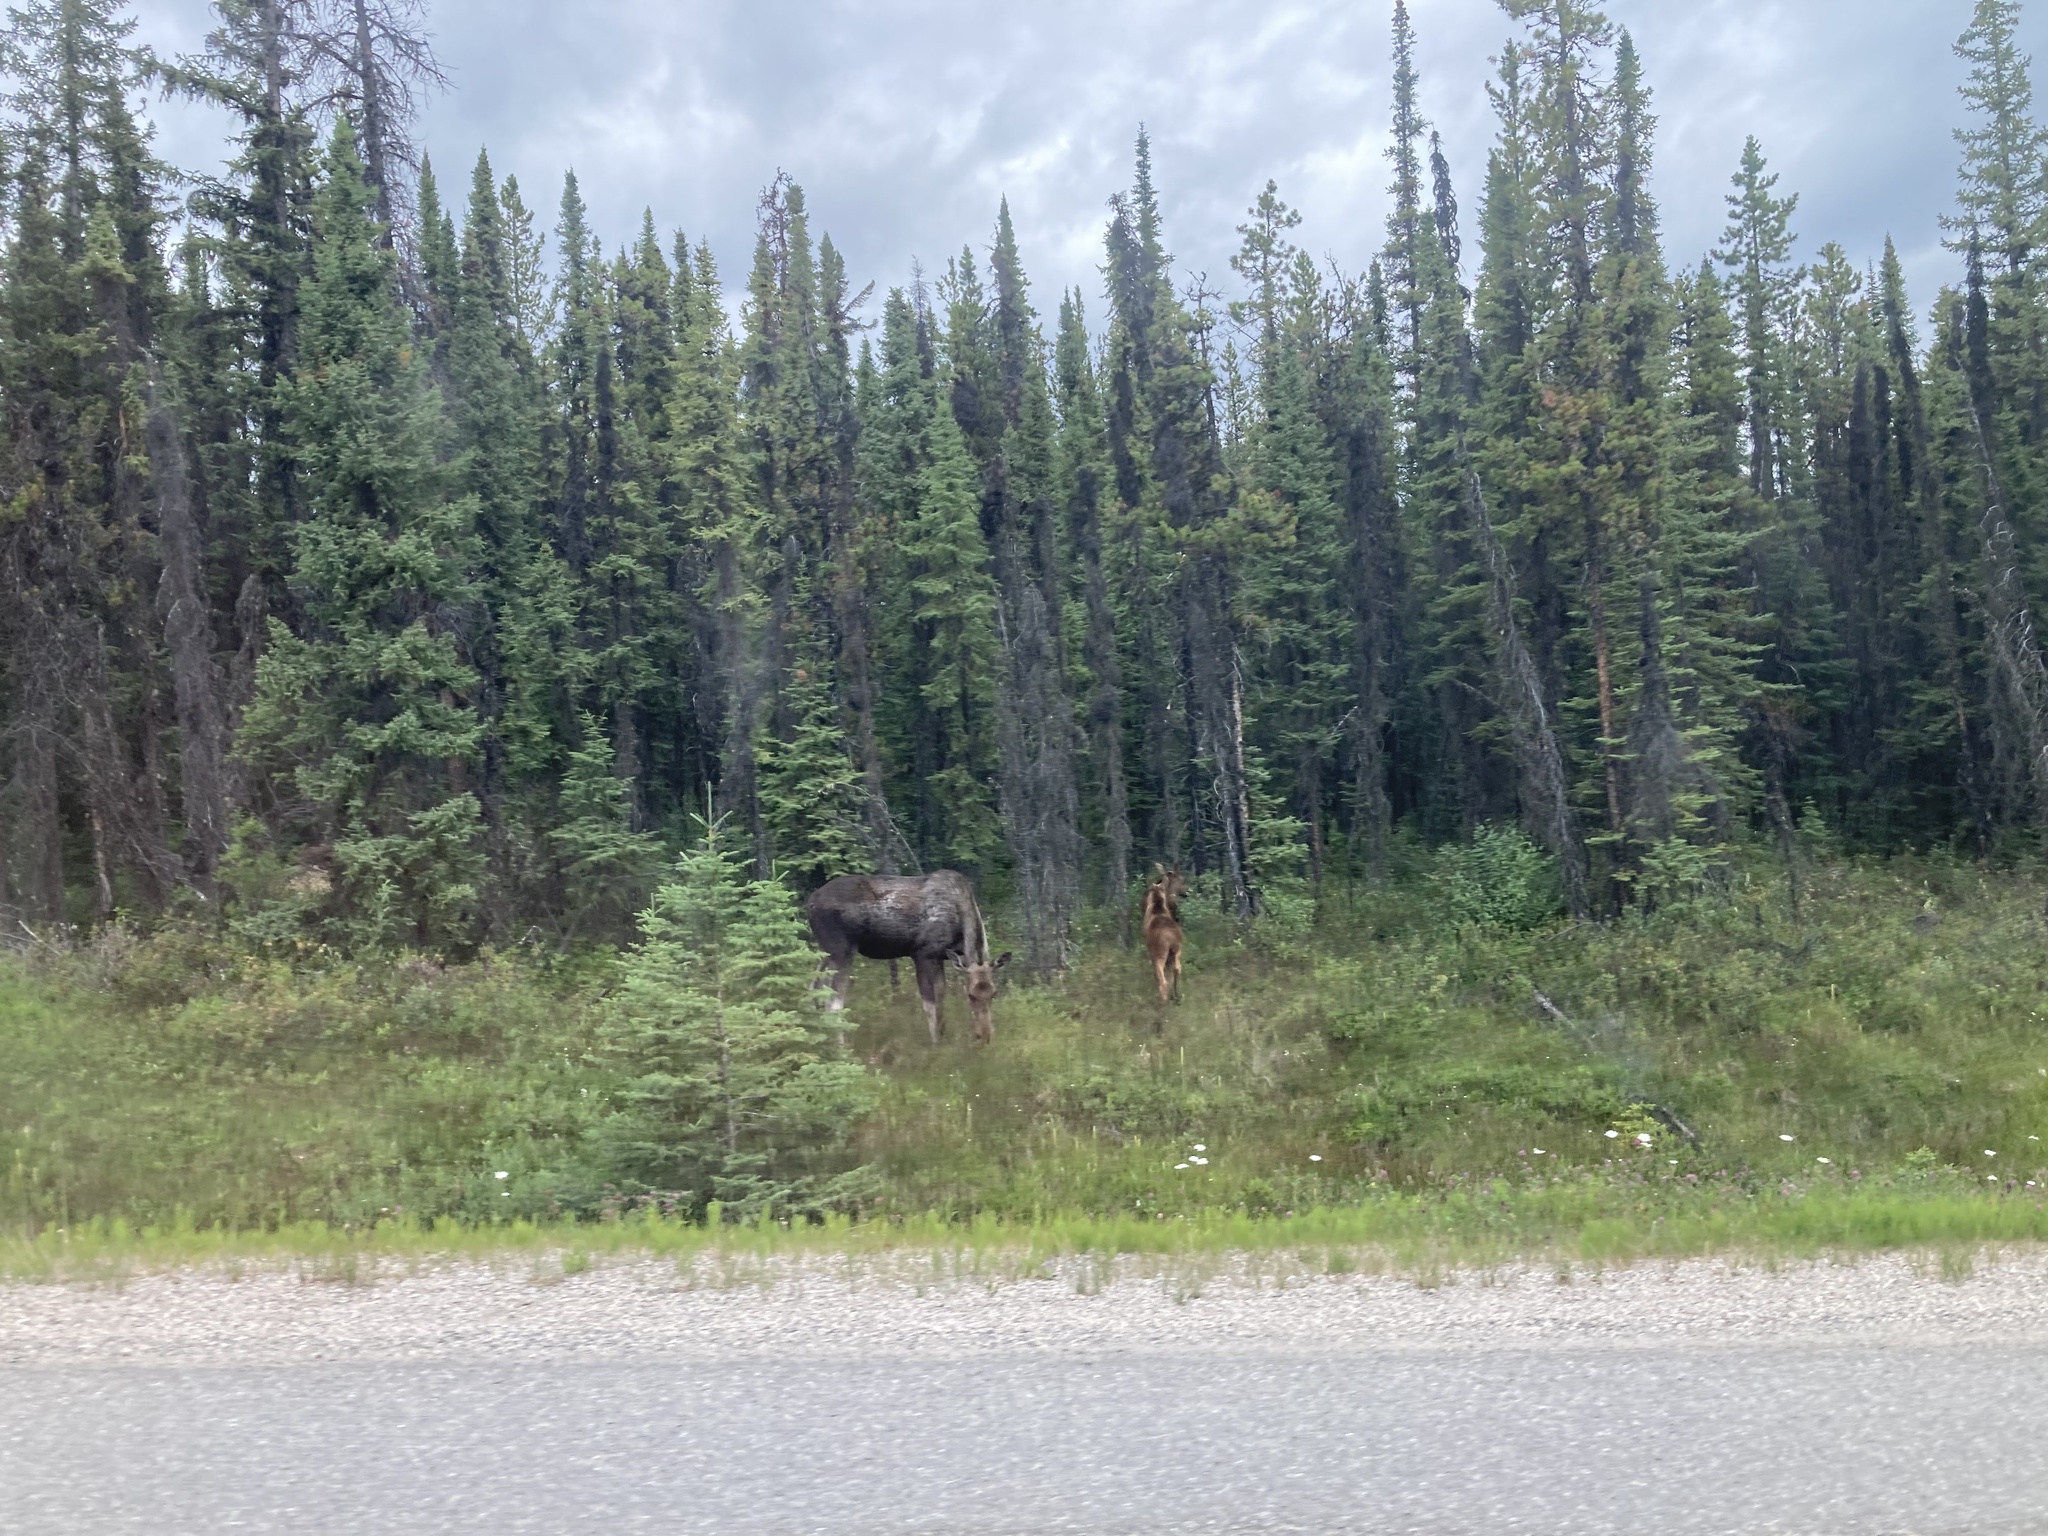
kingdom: Animalia
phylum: Chordata
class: Mammalia
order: Artiodactyla
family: Cervidae
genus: Alces
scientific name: Alces alces
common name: Moose
